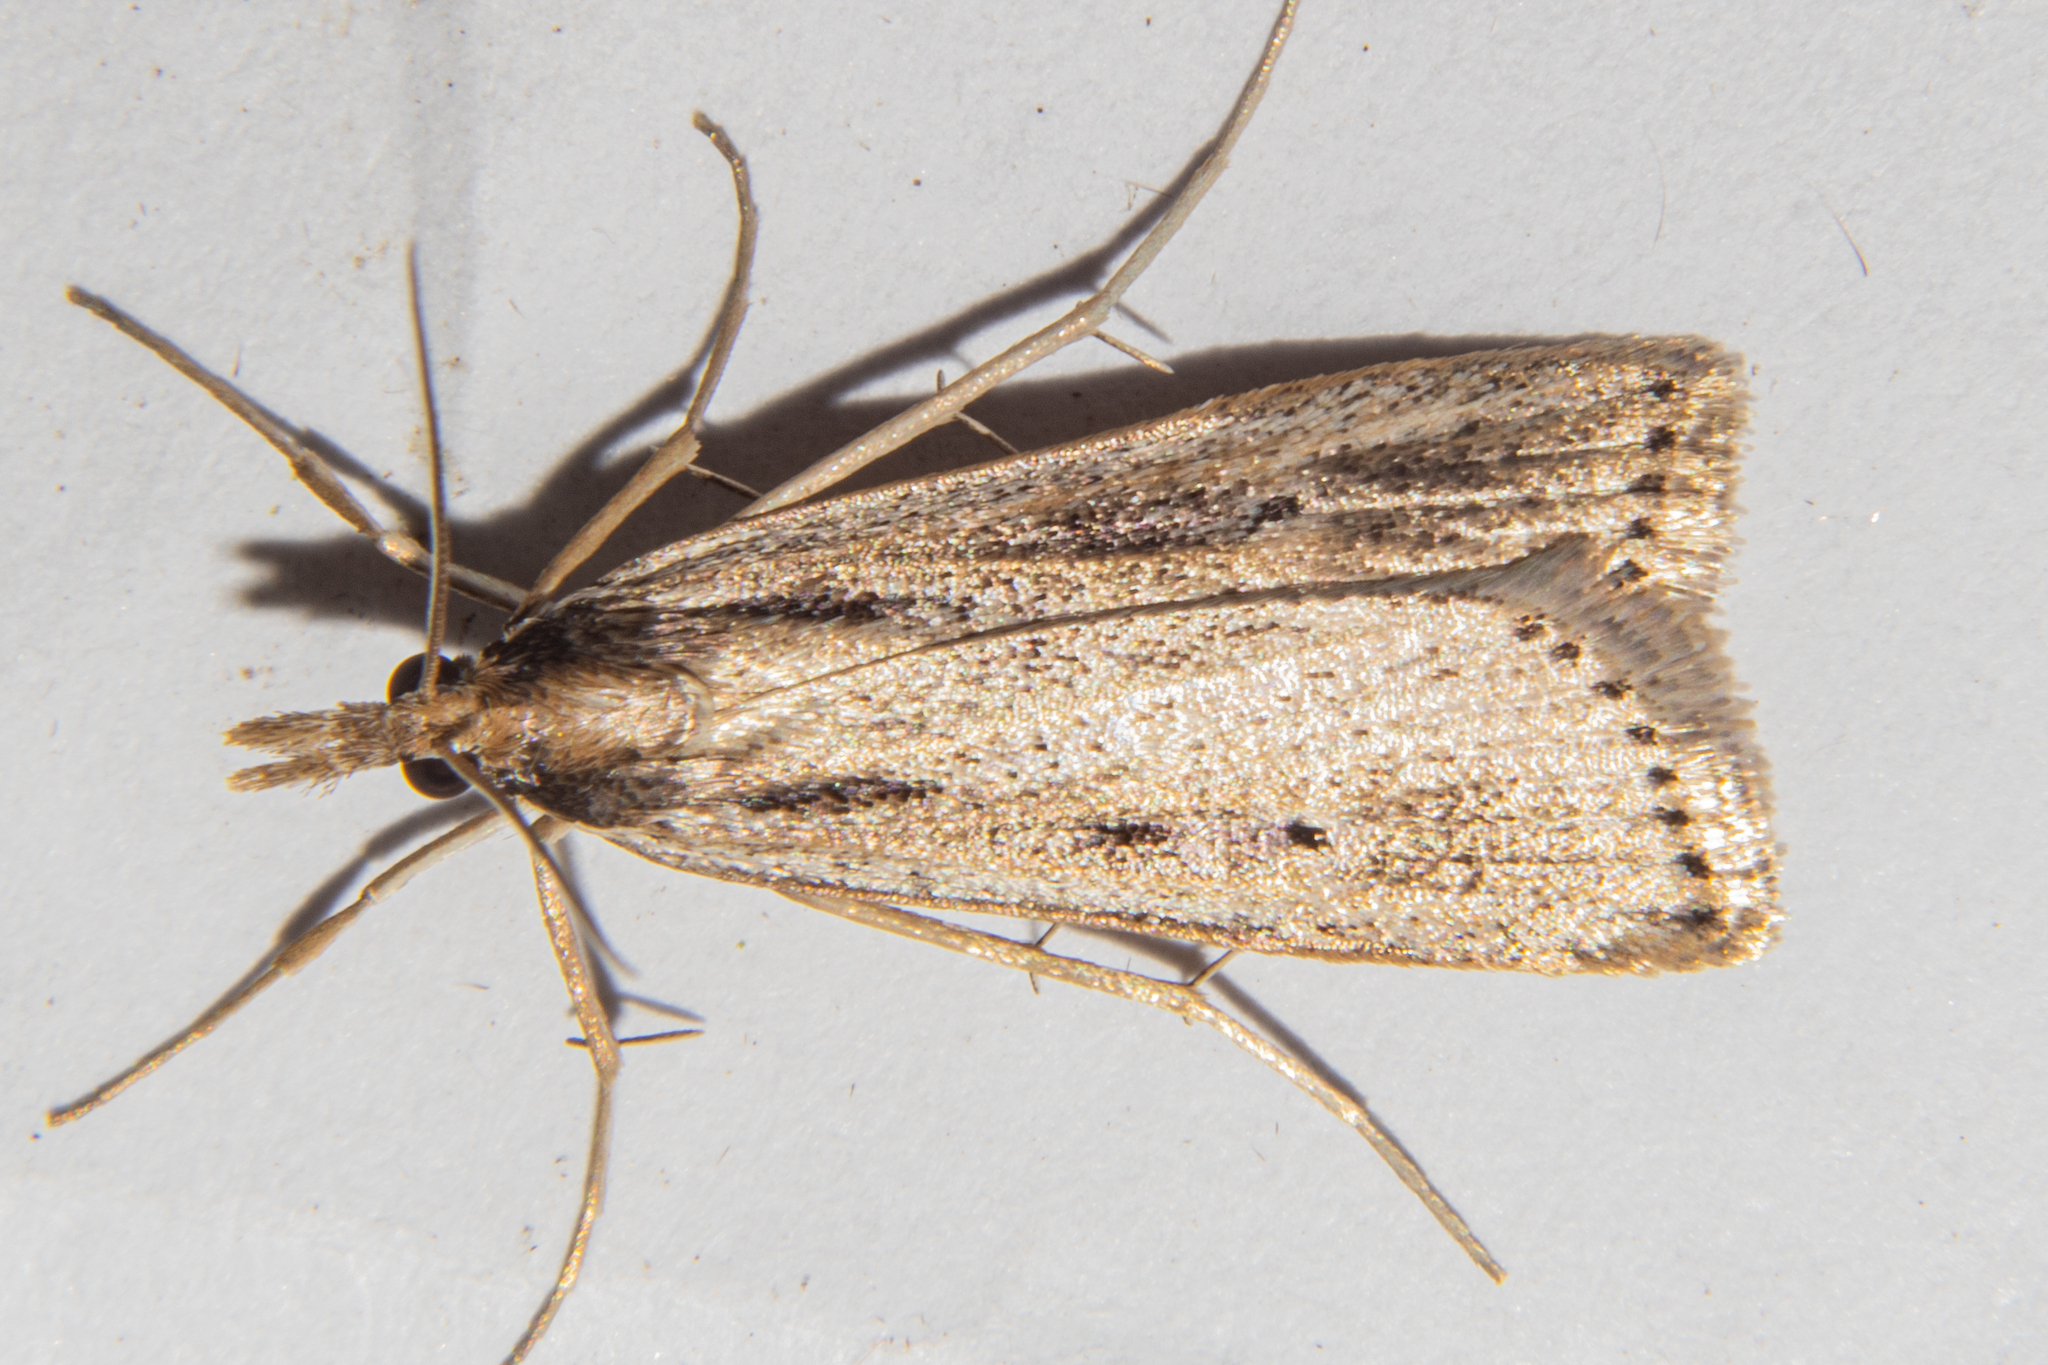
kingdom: Animalia
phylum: Arthropoda
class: Insecta
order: Lepidoptera
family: Crambidae
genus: Eudonia
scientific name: Eudonia sabulosella
